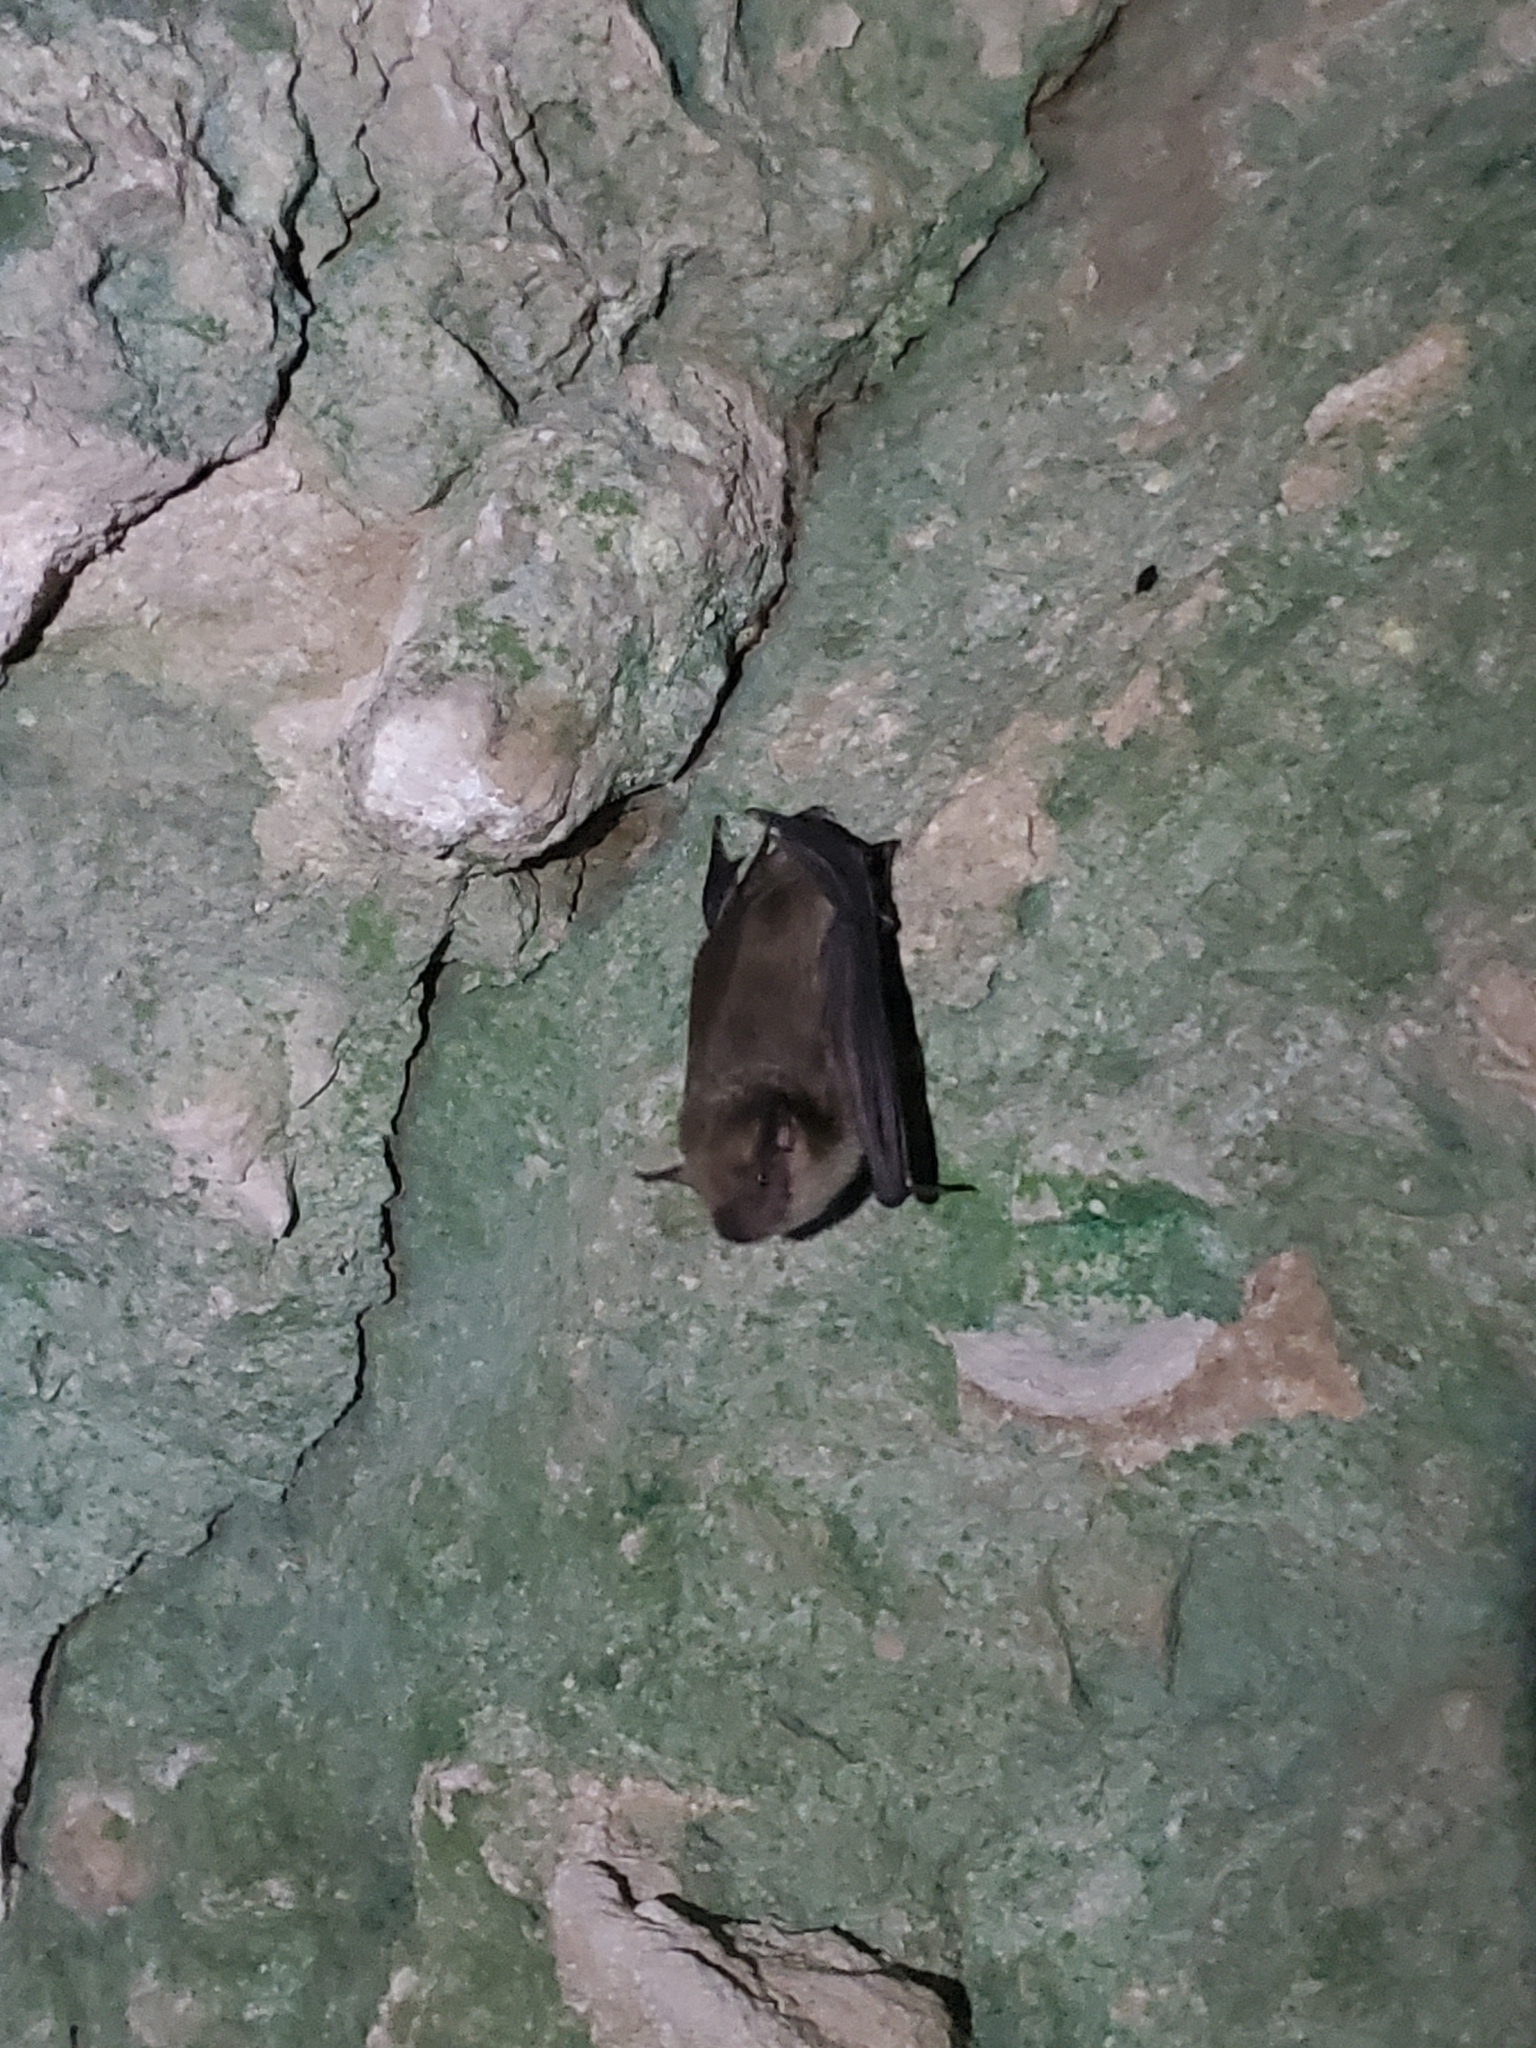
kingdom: Animalia
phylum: Chordata
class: Mammalia
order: Chiroptera
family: Vespertilionidae
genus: Eptesicus
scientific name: Eptesicus fuscus
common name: Big brown bat
